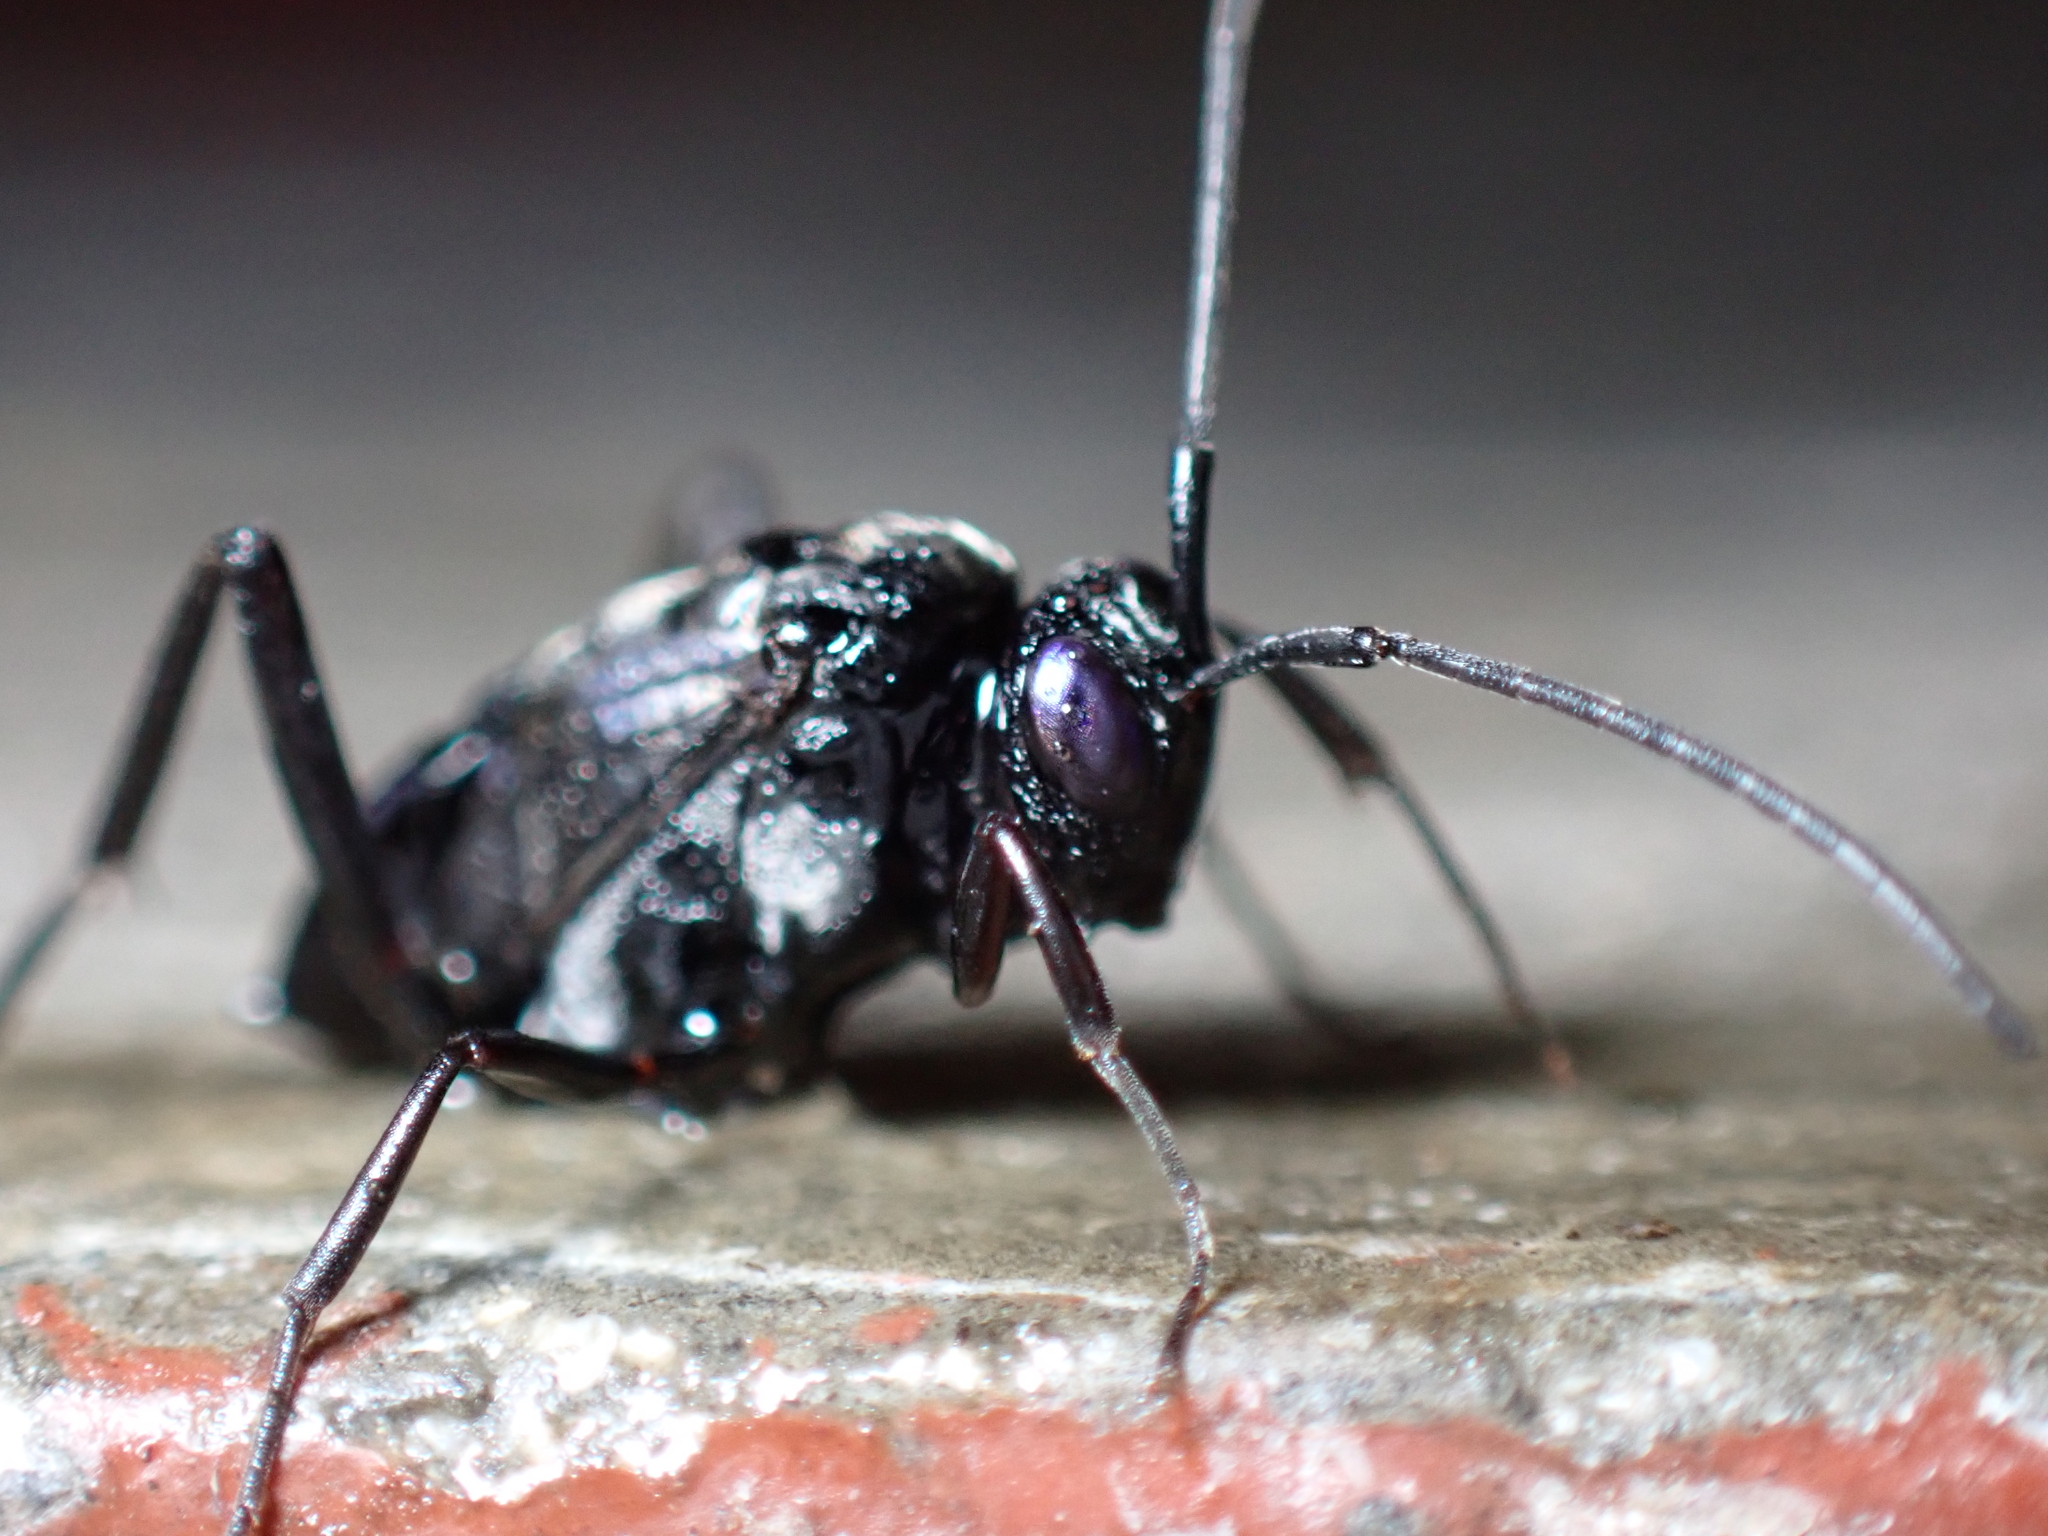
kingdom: Animalia
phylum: Arthropoda
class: Insecta
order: Hymenoptera
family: Evaniidae
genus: Evania
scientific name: Evania appendigaster
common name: Ensign wasp
